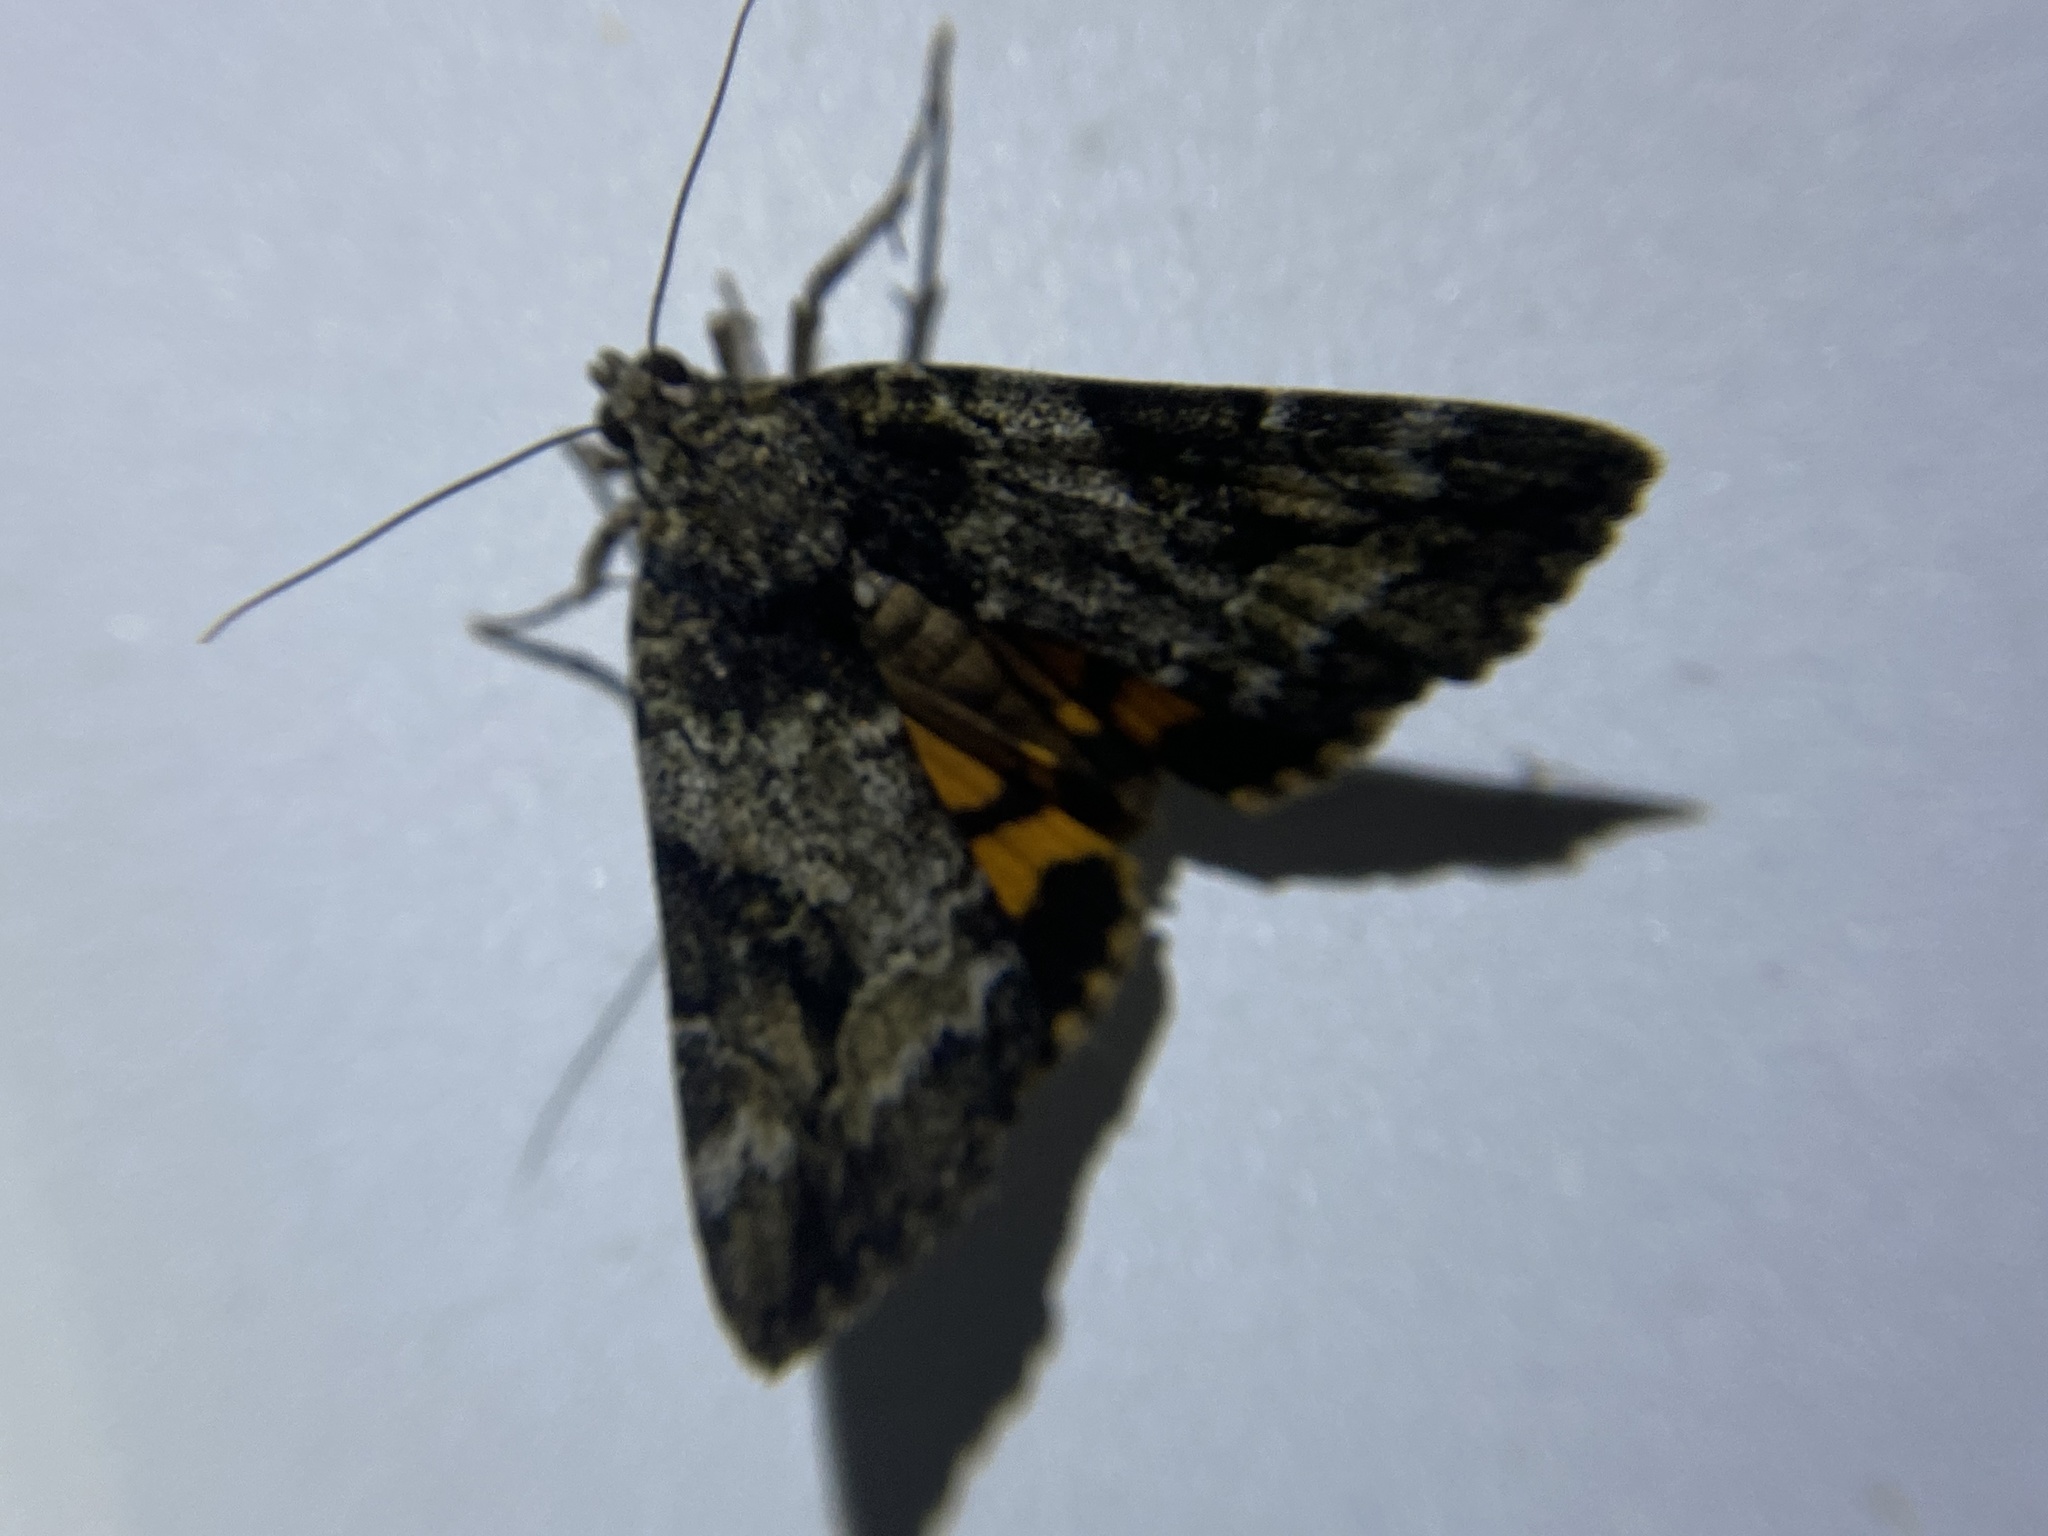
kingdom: Animalia
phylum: Arthropoda
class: Insecta
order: Lepidoptera
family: Erebidae
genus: Catocala
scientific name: Catocala micronympha
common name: Little nymph underwing
